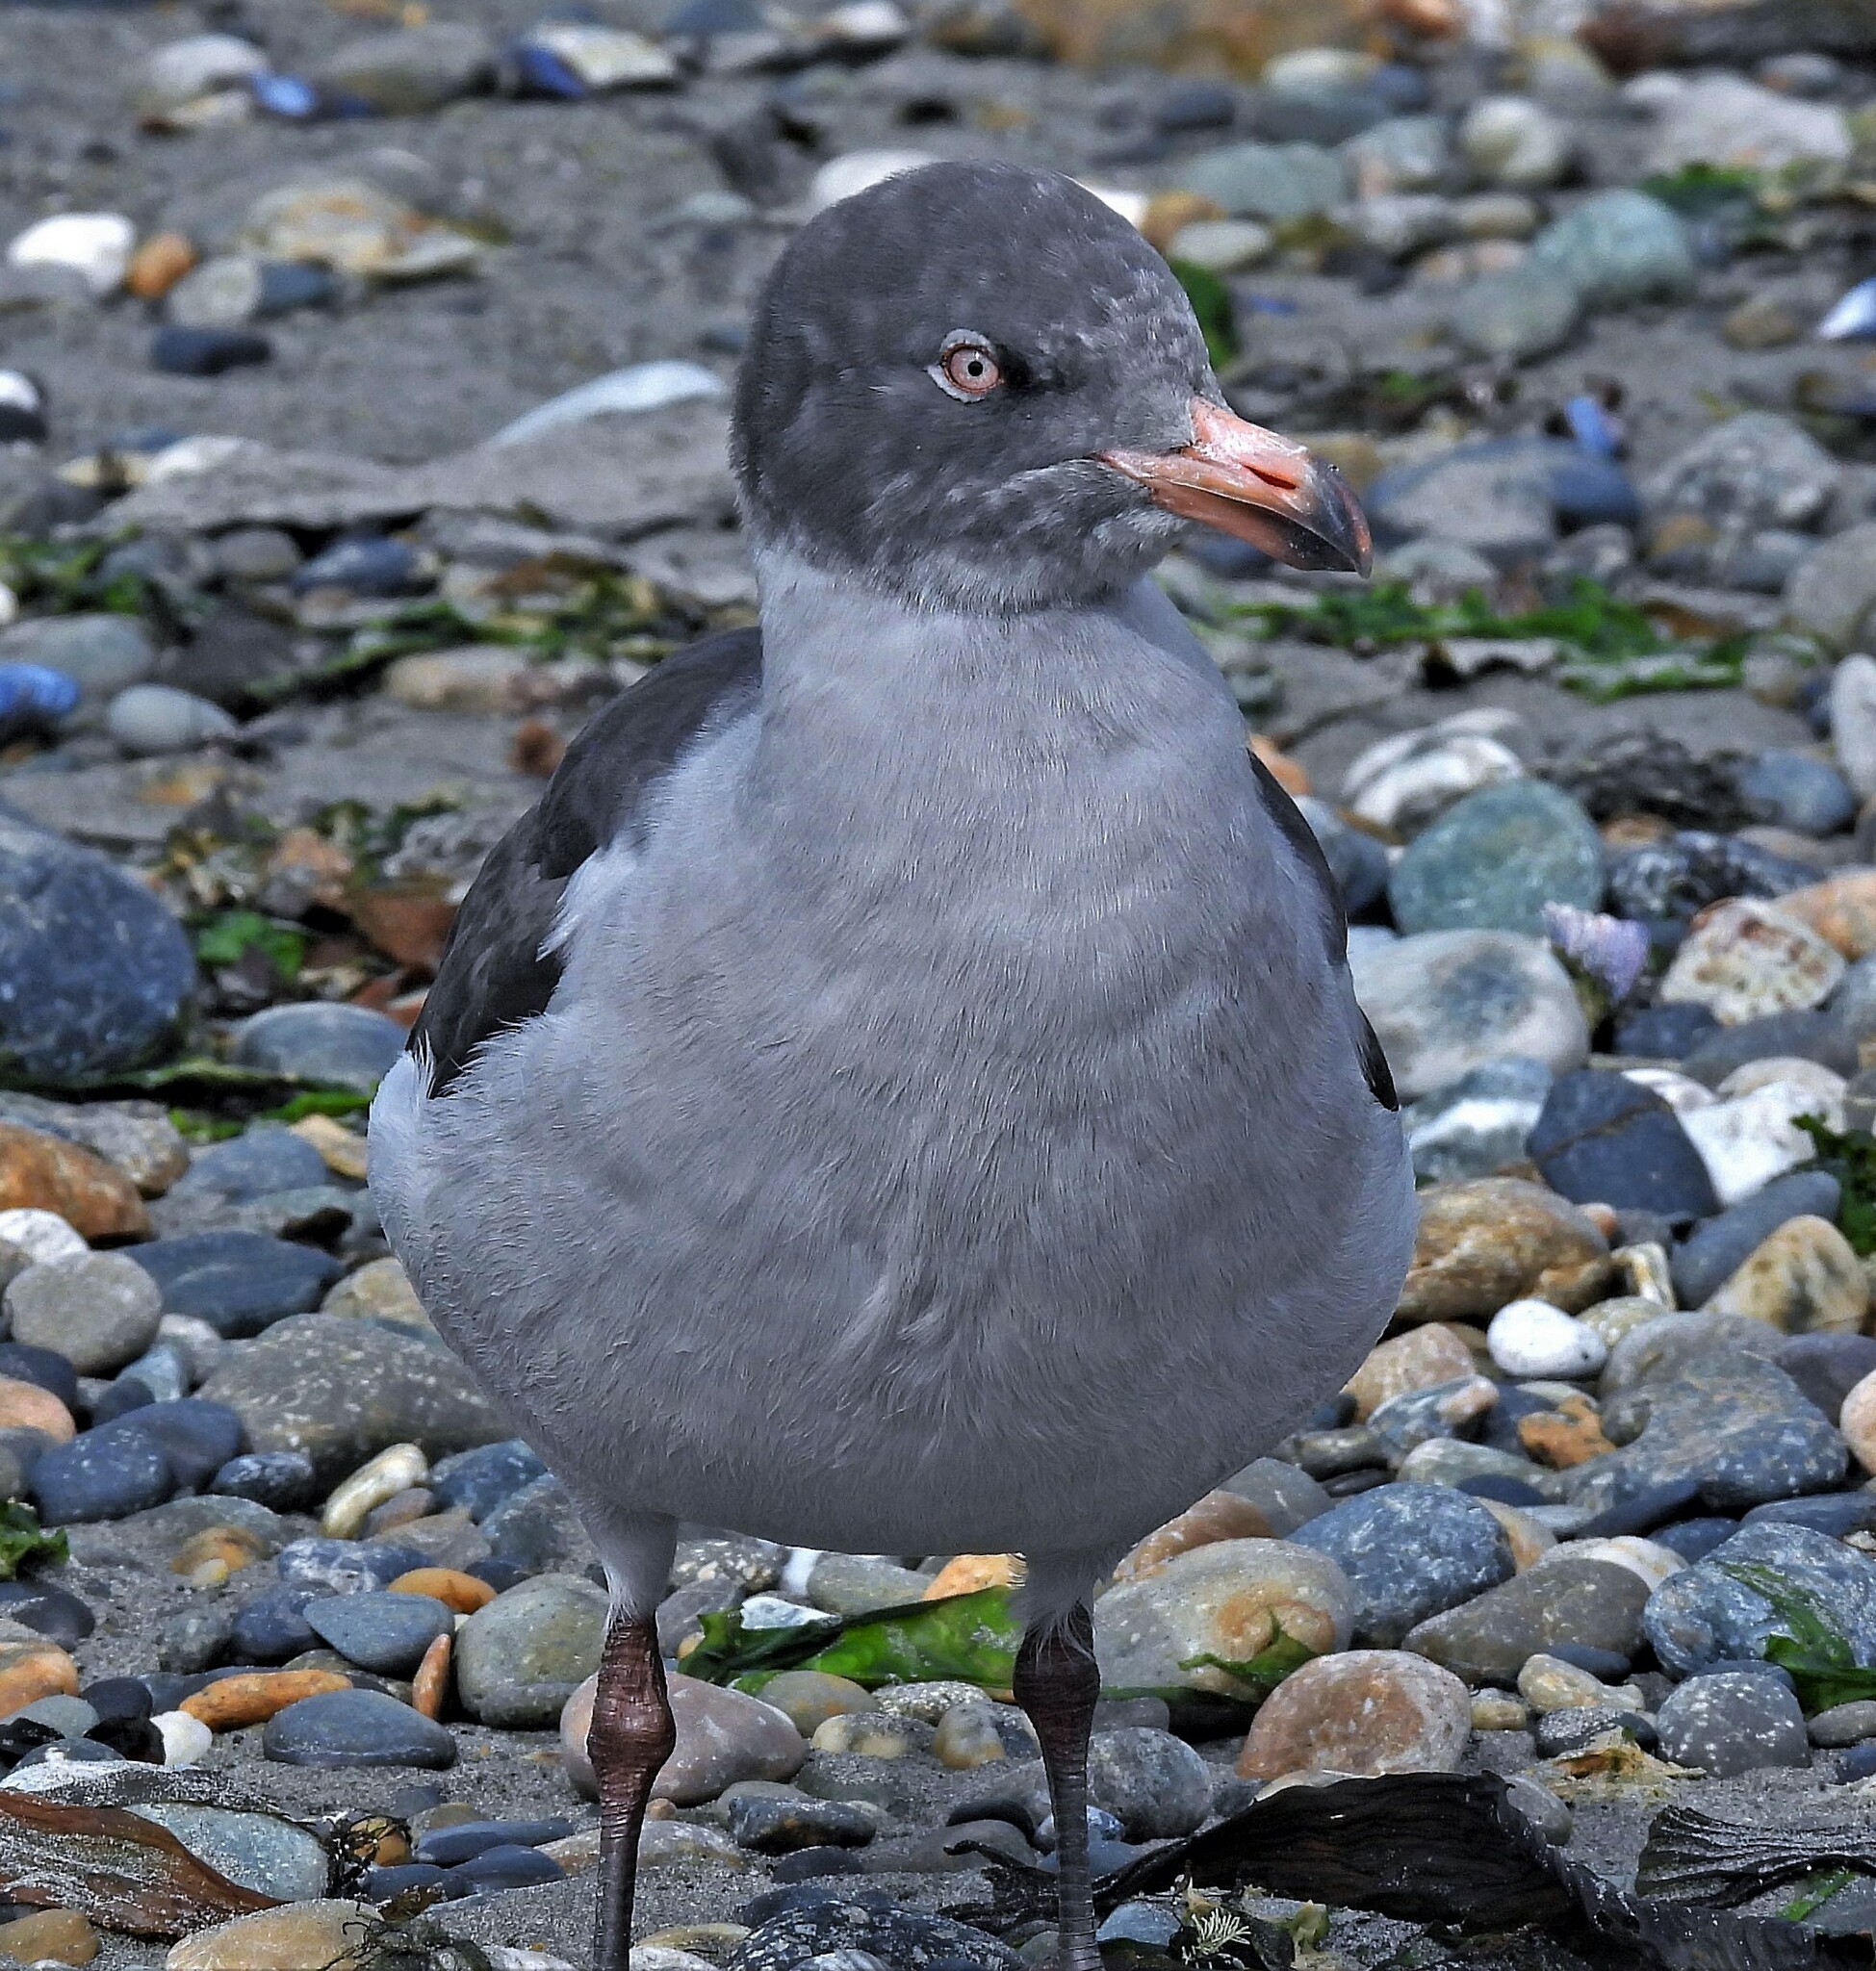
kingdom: Animalia
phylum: Chordata
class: Aves
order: Charadriiformes
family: Laridae
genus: Leucophaeus
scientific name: Leucophaeus scoresbii
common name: Dolphin gull
